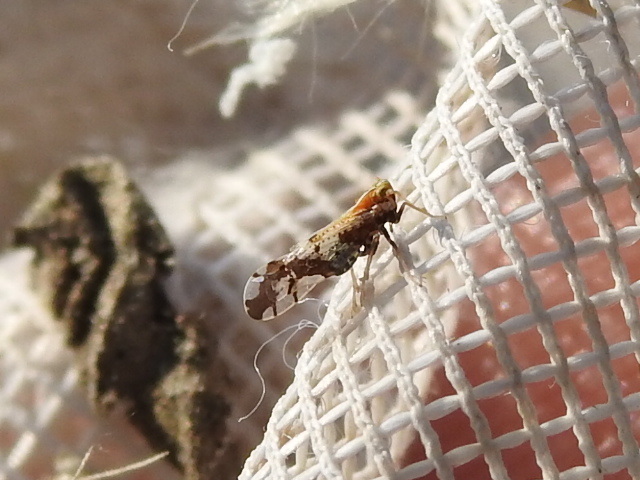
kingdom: Animalia
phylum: Arthropoda
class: Insecta
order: Hemiptera
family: Delphacidae
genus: Liburniella
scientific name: Liburniella ornata
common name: Ornate planthopper
